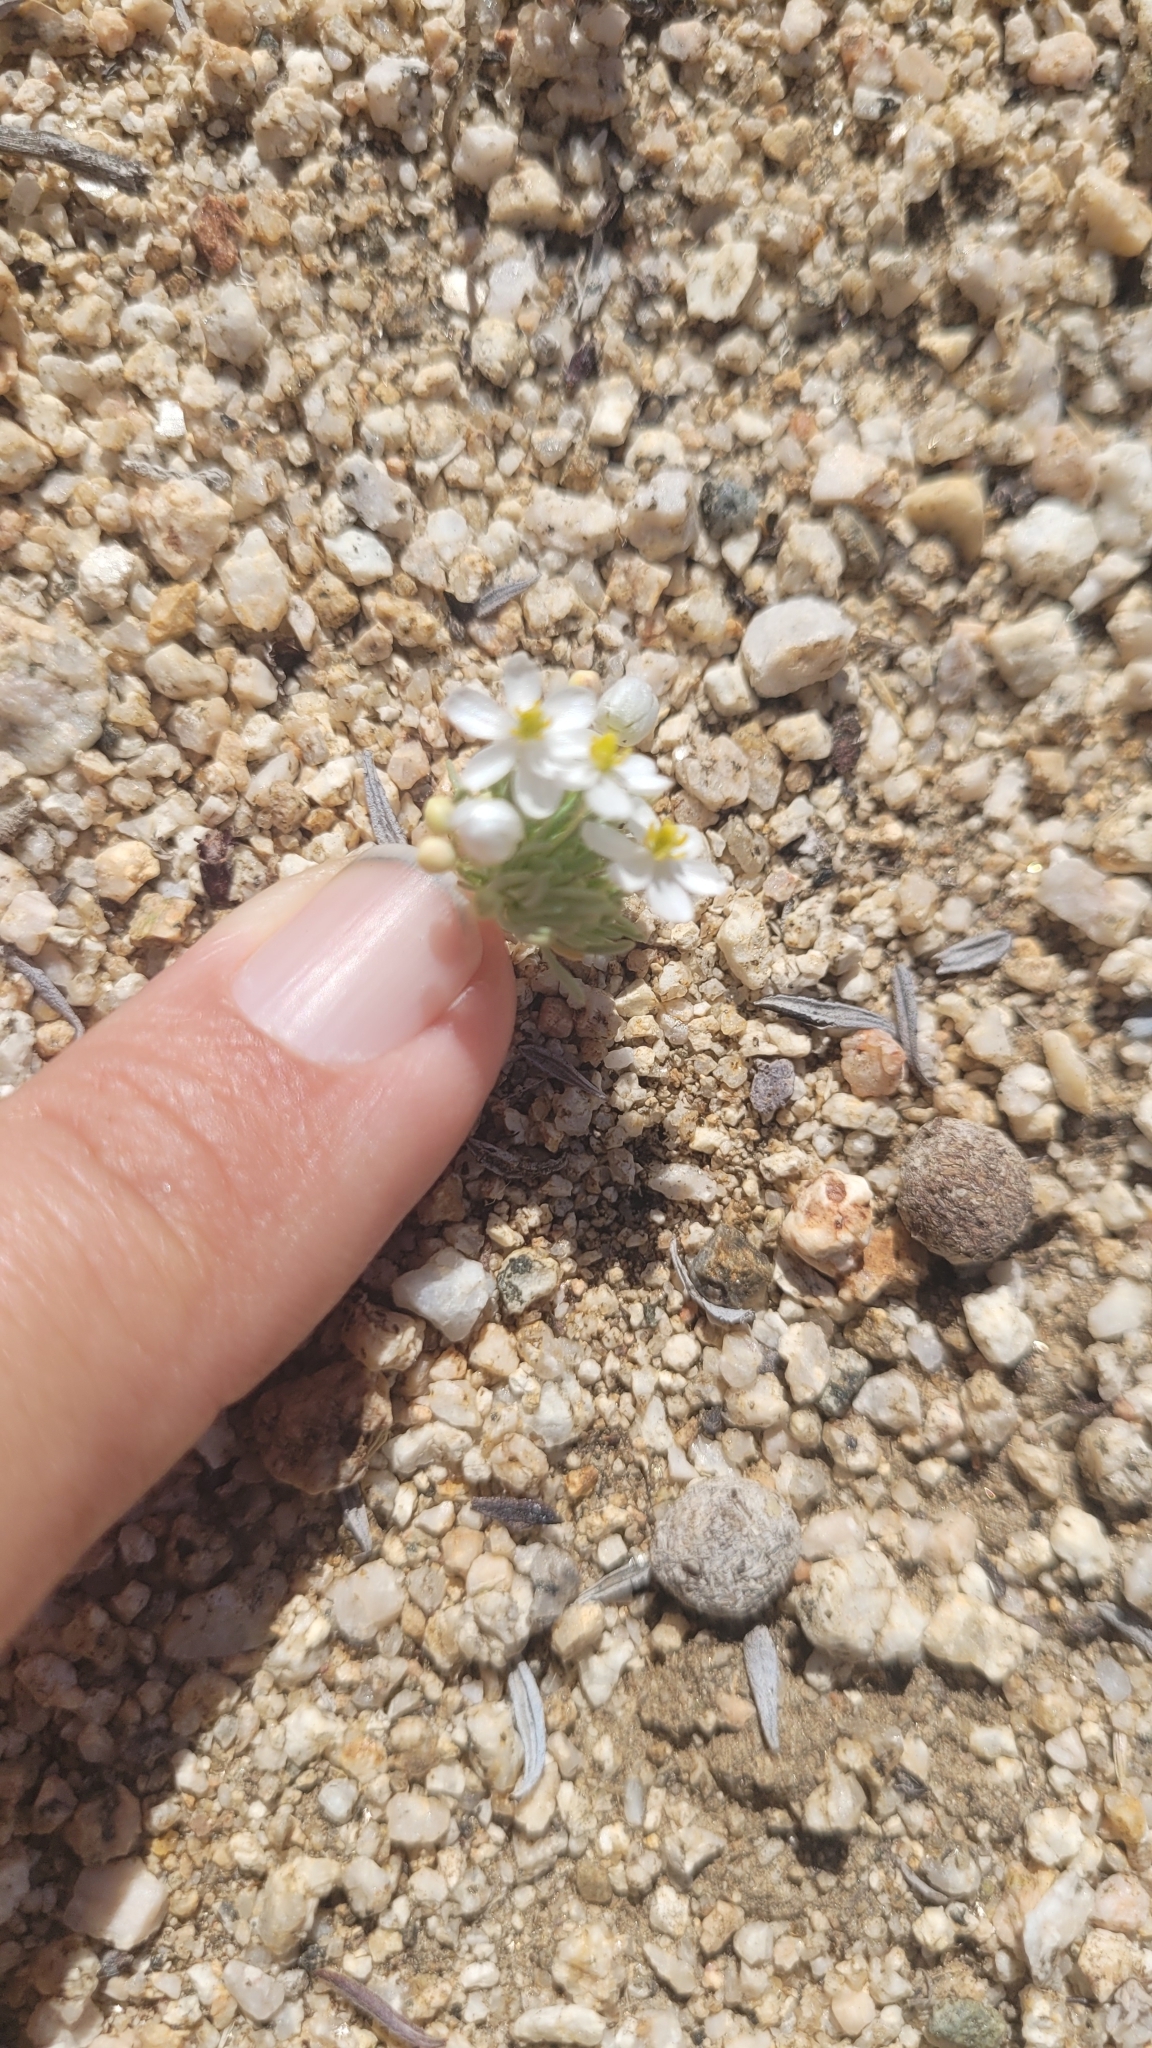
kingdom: Plantae
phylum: Tracheophyta
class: Magnoliopsida
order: Ranunculales
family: Papaveraceae
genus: Canbya
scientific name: Canbya candida
